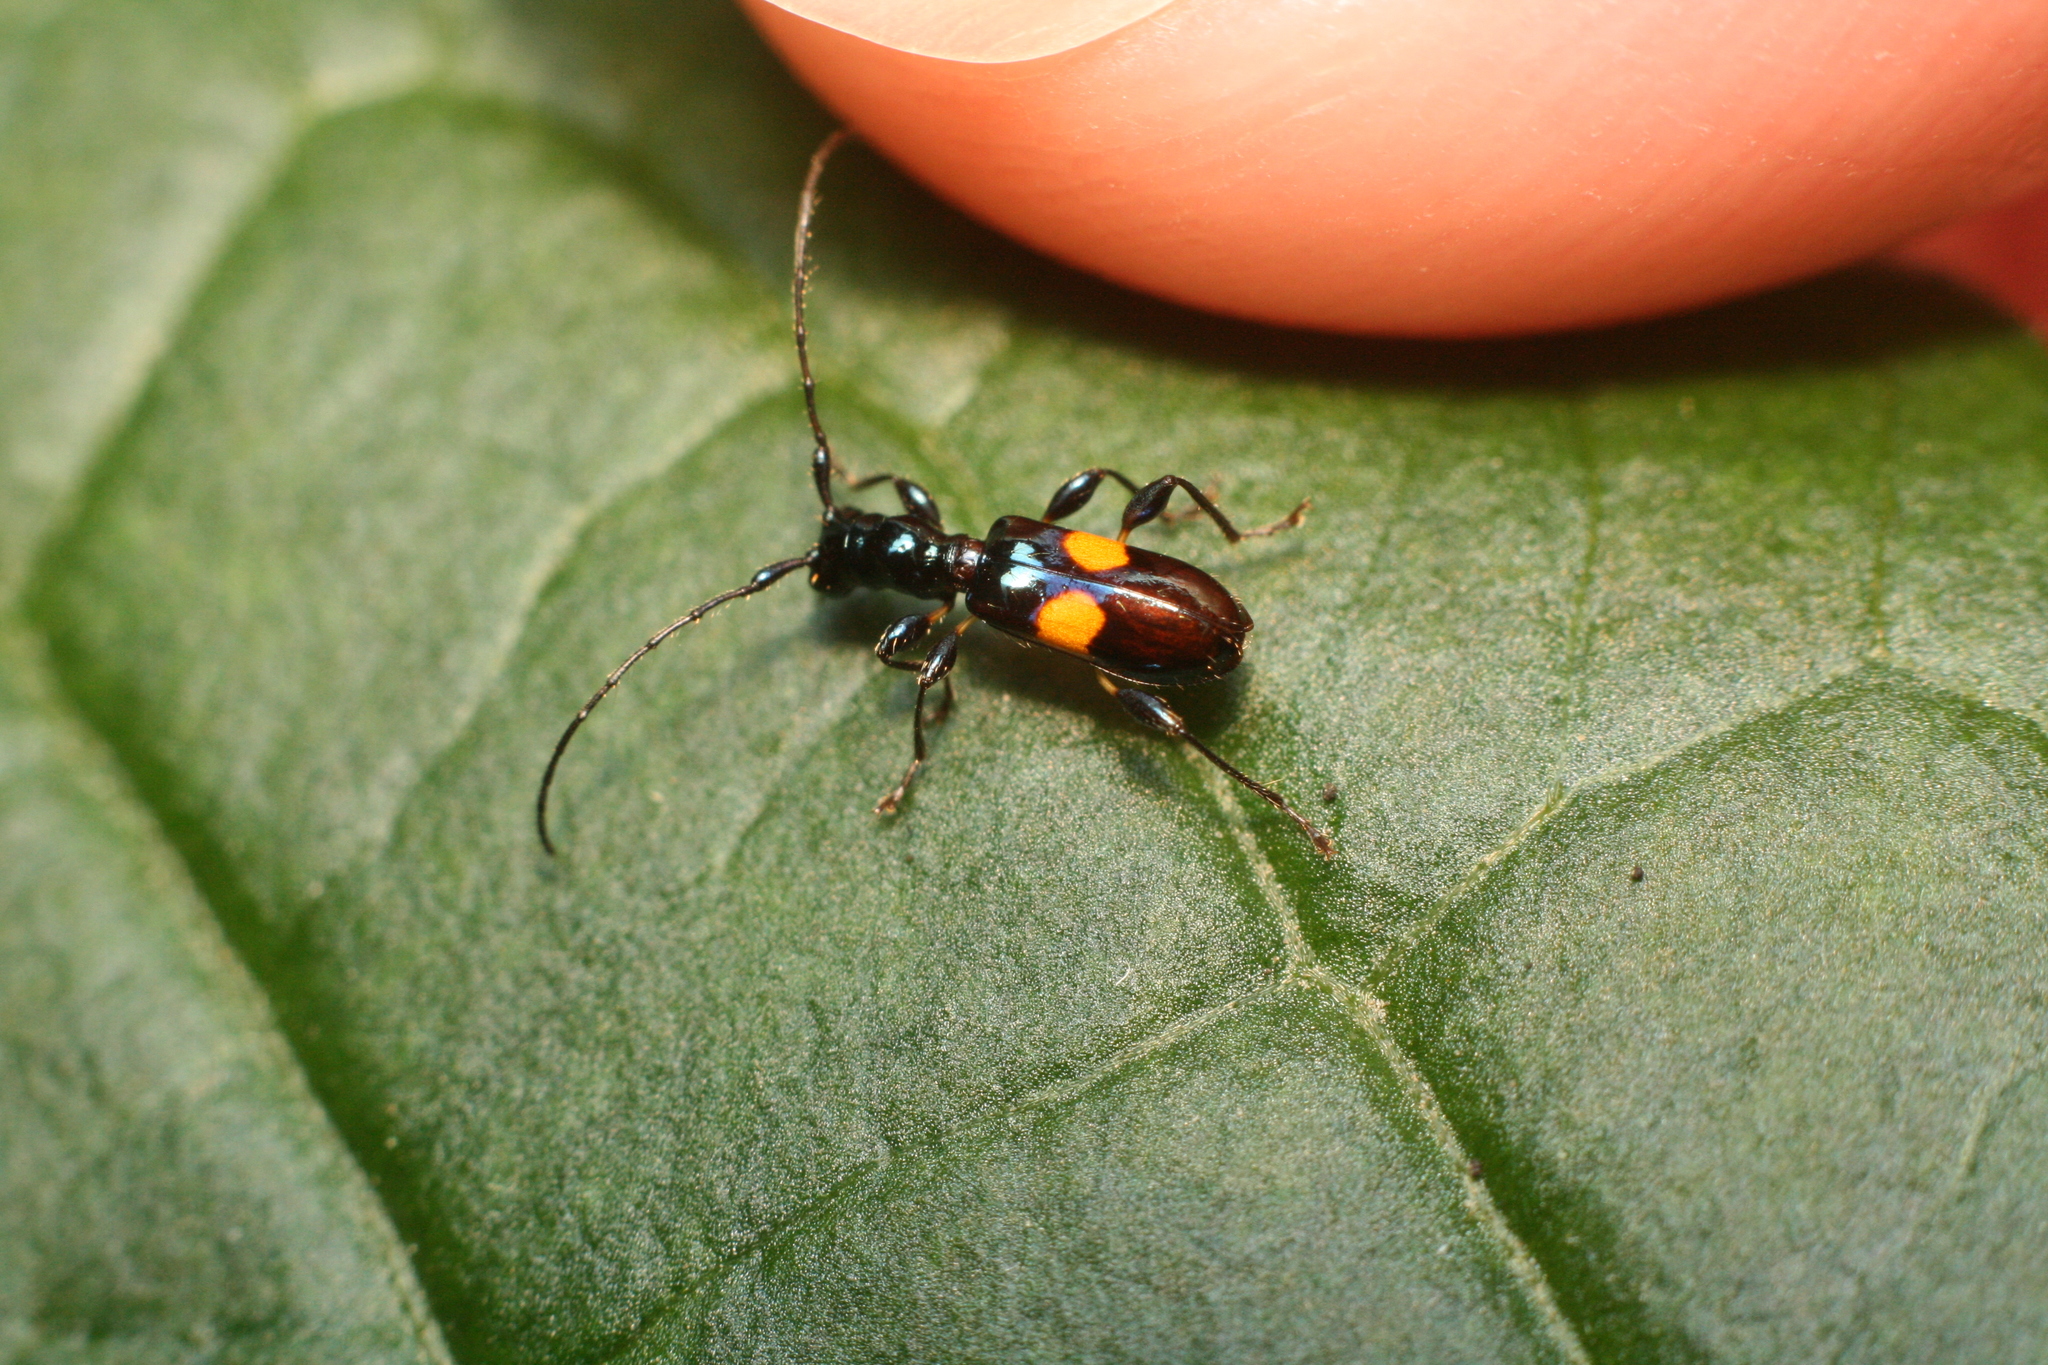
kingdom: Animalia
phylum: Arthropoda
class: Insecta
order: Coleoptera
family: Cerambycidae
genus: Zorion
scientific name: Zorion guttigerum
